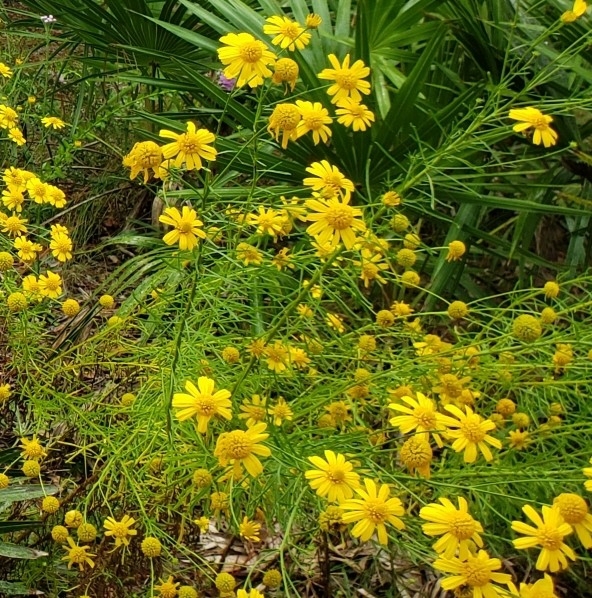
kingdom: Plantae
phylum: Tracheophyta
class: Magnoliopsida
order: Asterales
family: Asteraceae
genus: Balduina
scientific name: Balduina angustifolia
